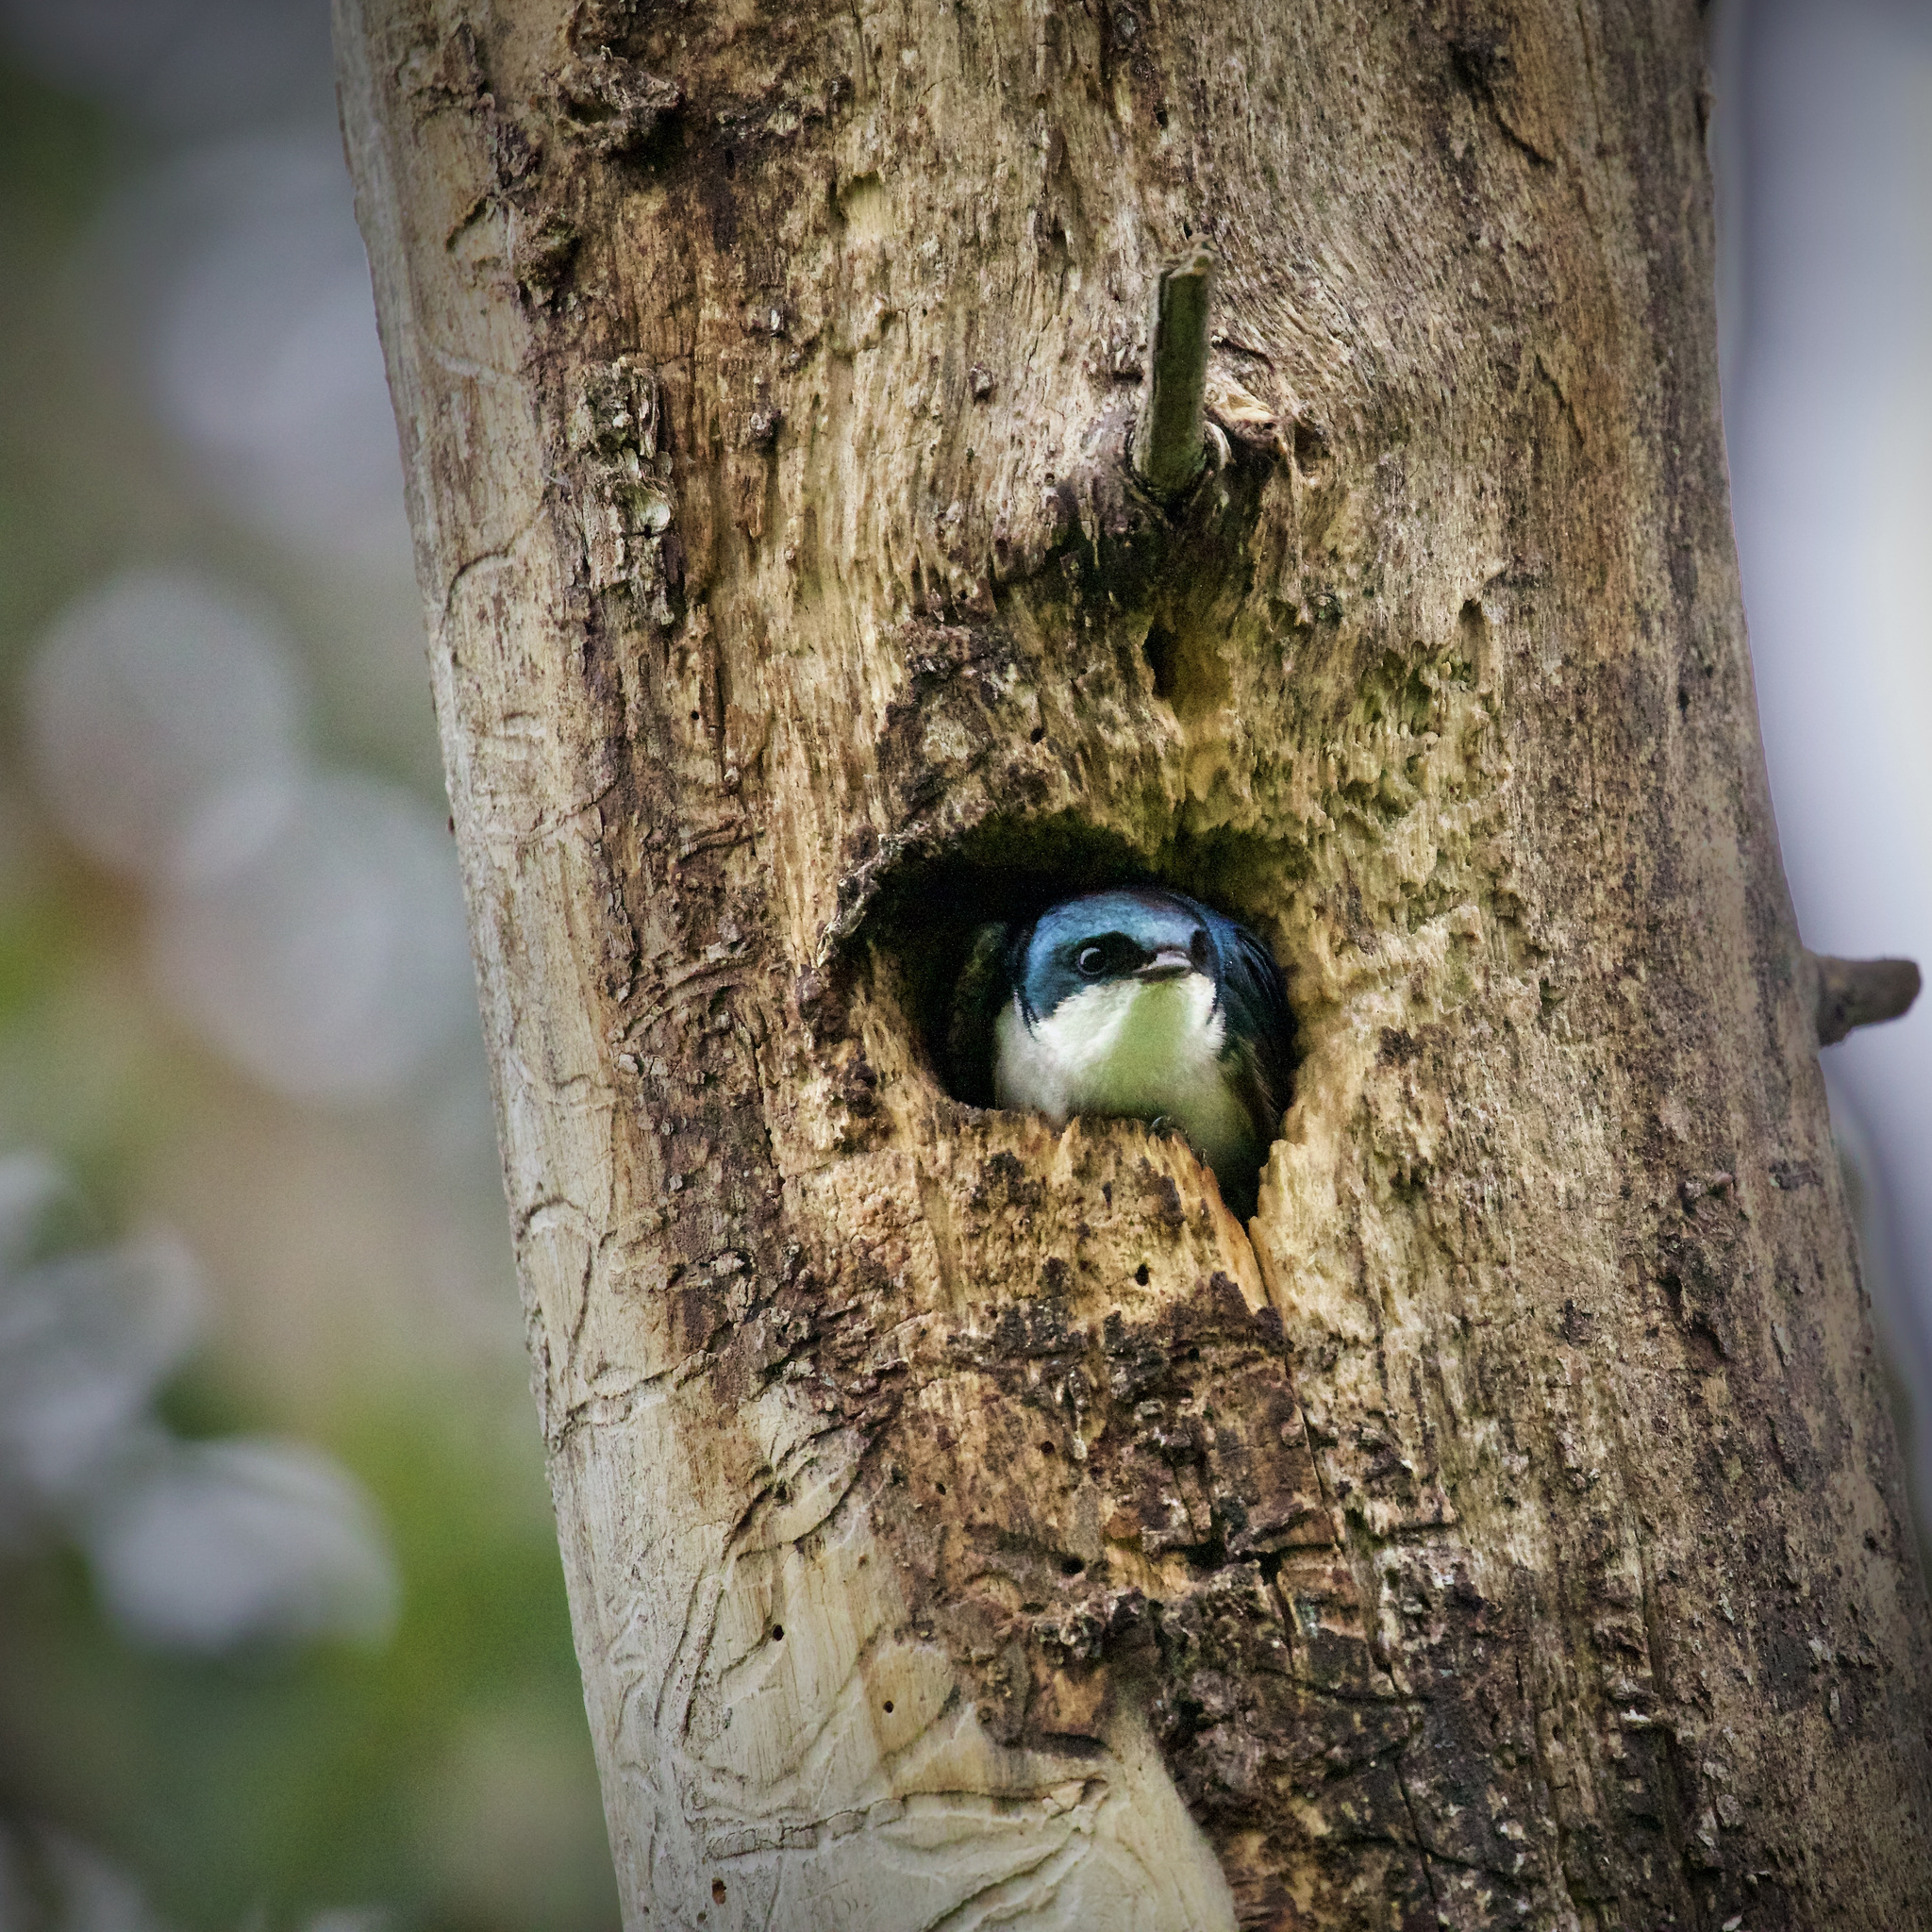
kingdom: Animalia
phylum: Chordata
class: Aves
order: Passeriformes
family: Hirundinidae
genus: Tachycineta
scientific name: Tachycineta bicolor
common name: Tree swallow
